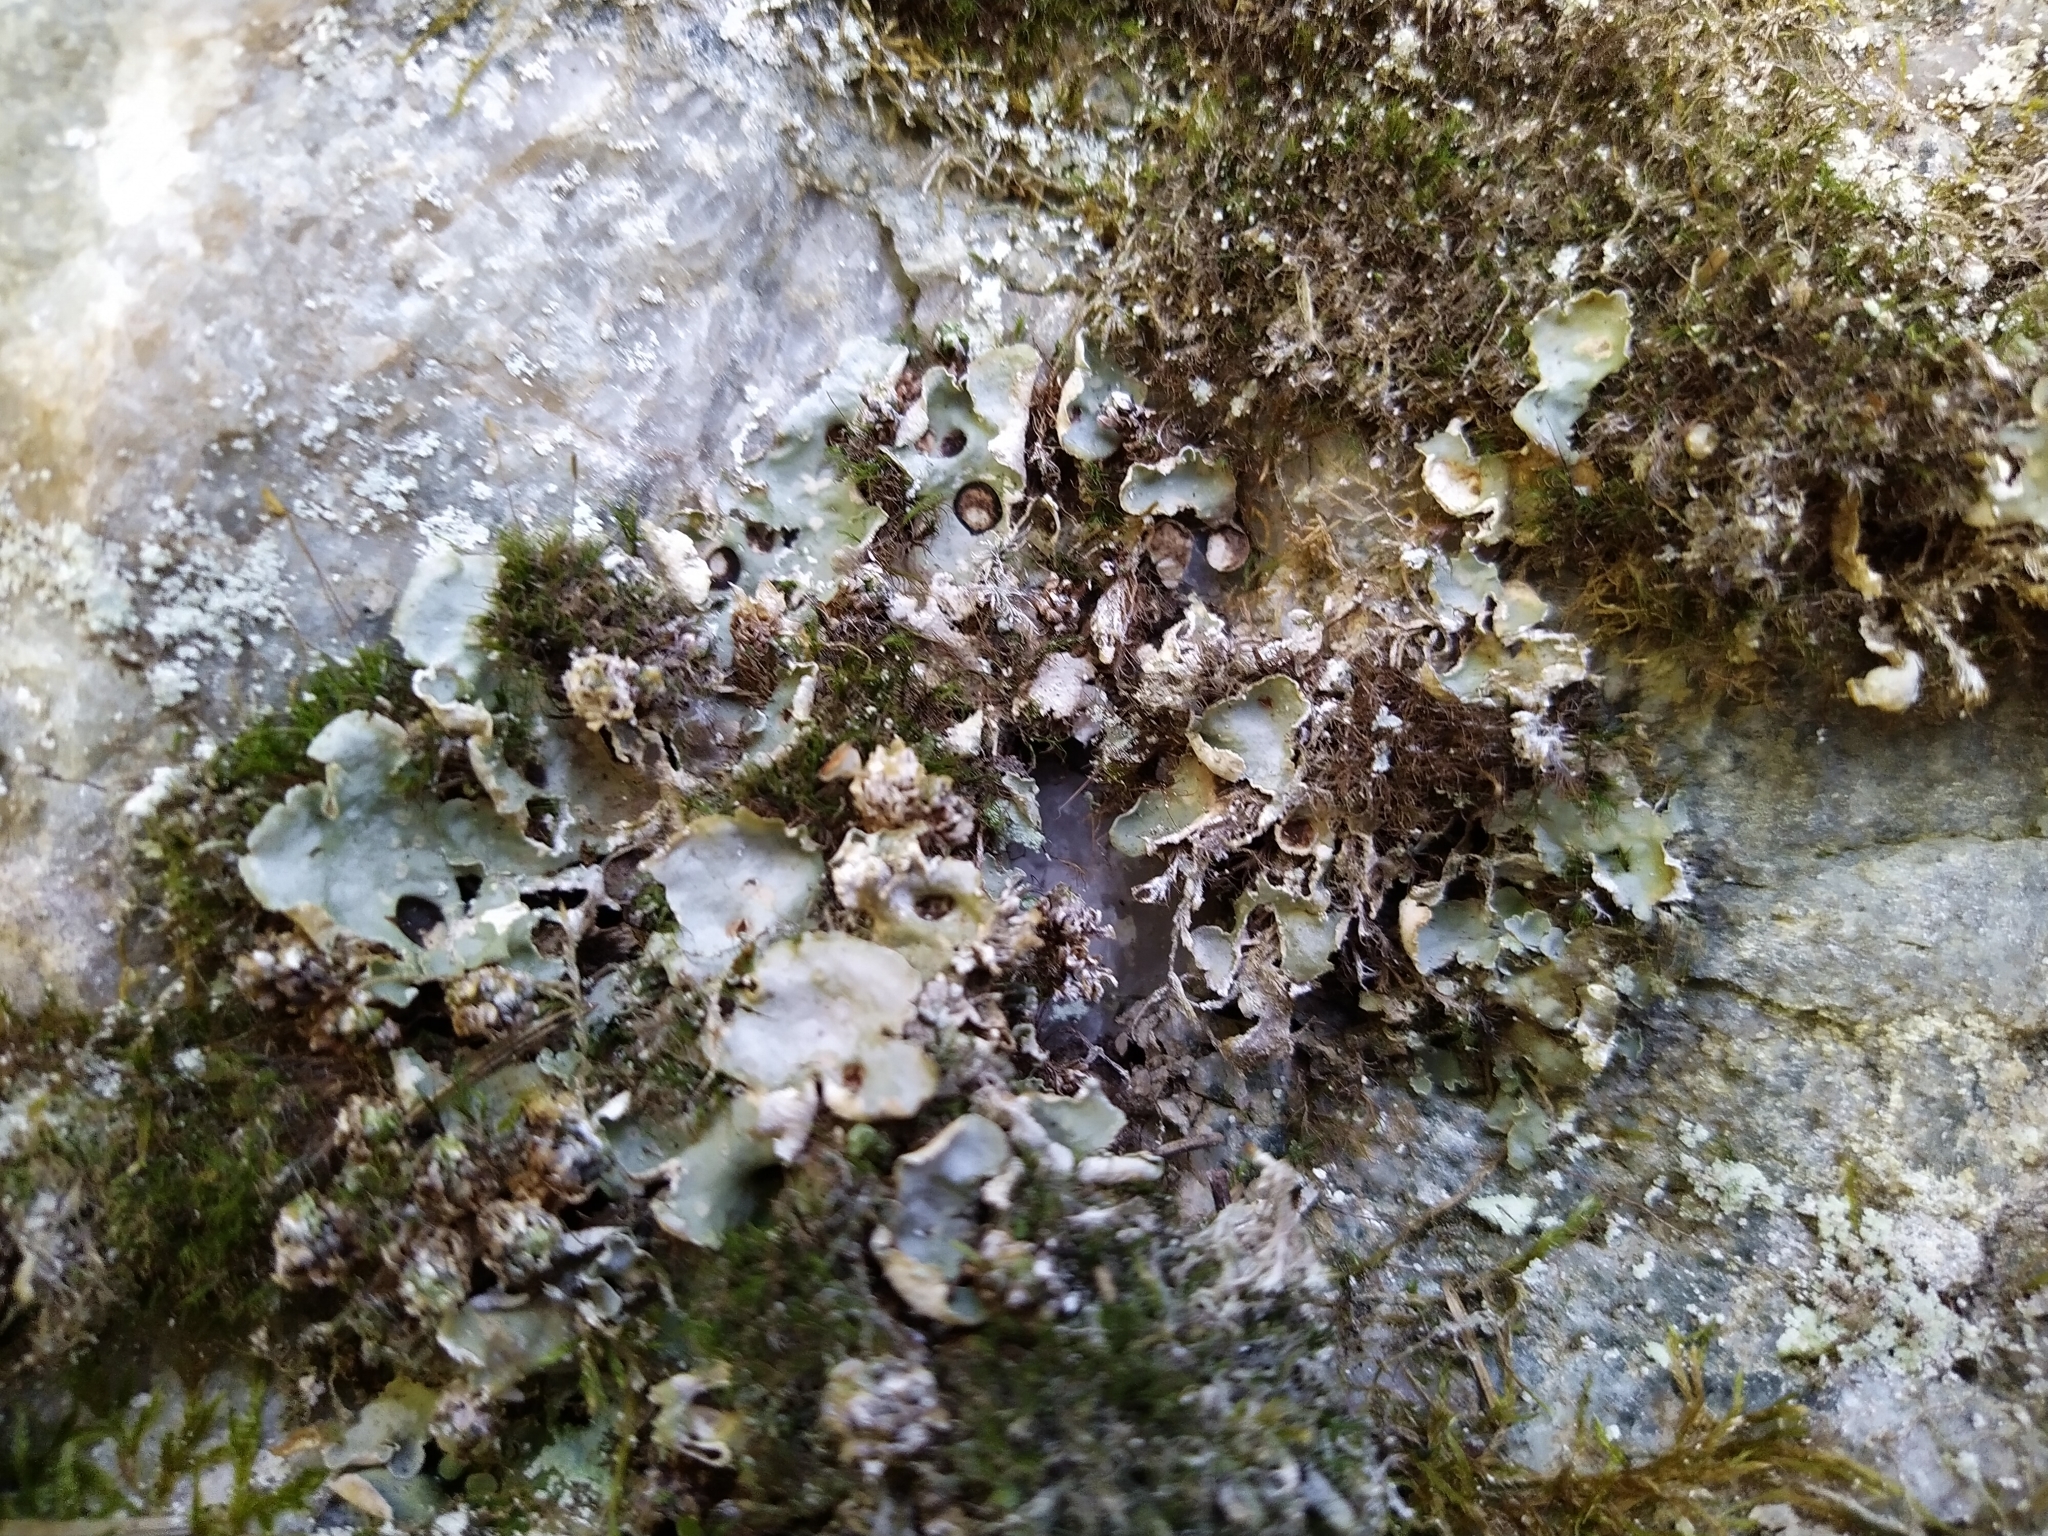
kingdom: Fungi
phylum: Ascomycota
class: Lecanoromycetes
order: Peltigerales
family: Peltigeraceae
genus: Solorina
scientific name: Solorina saccata
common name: Common chocolate chip lichen
